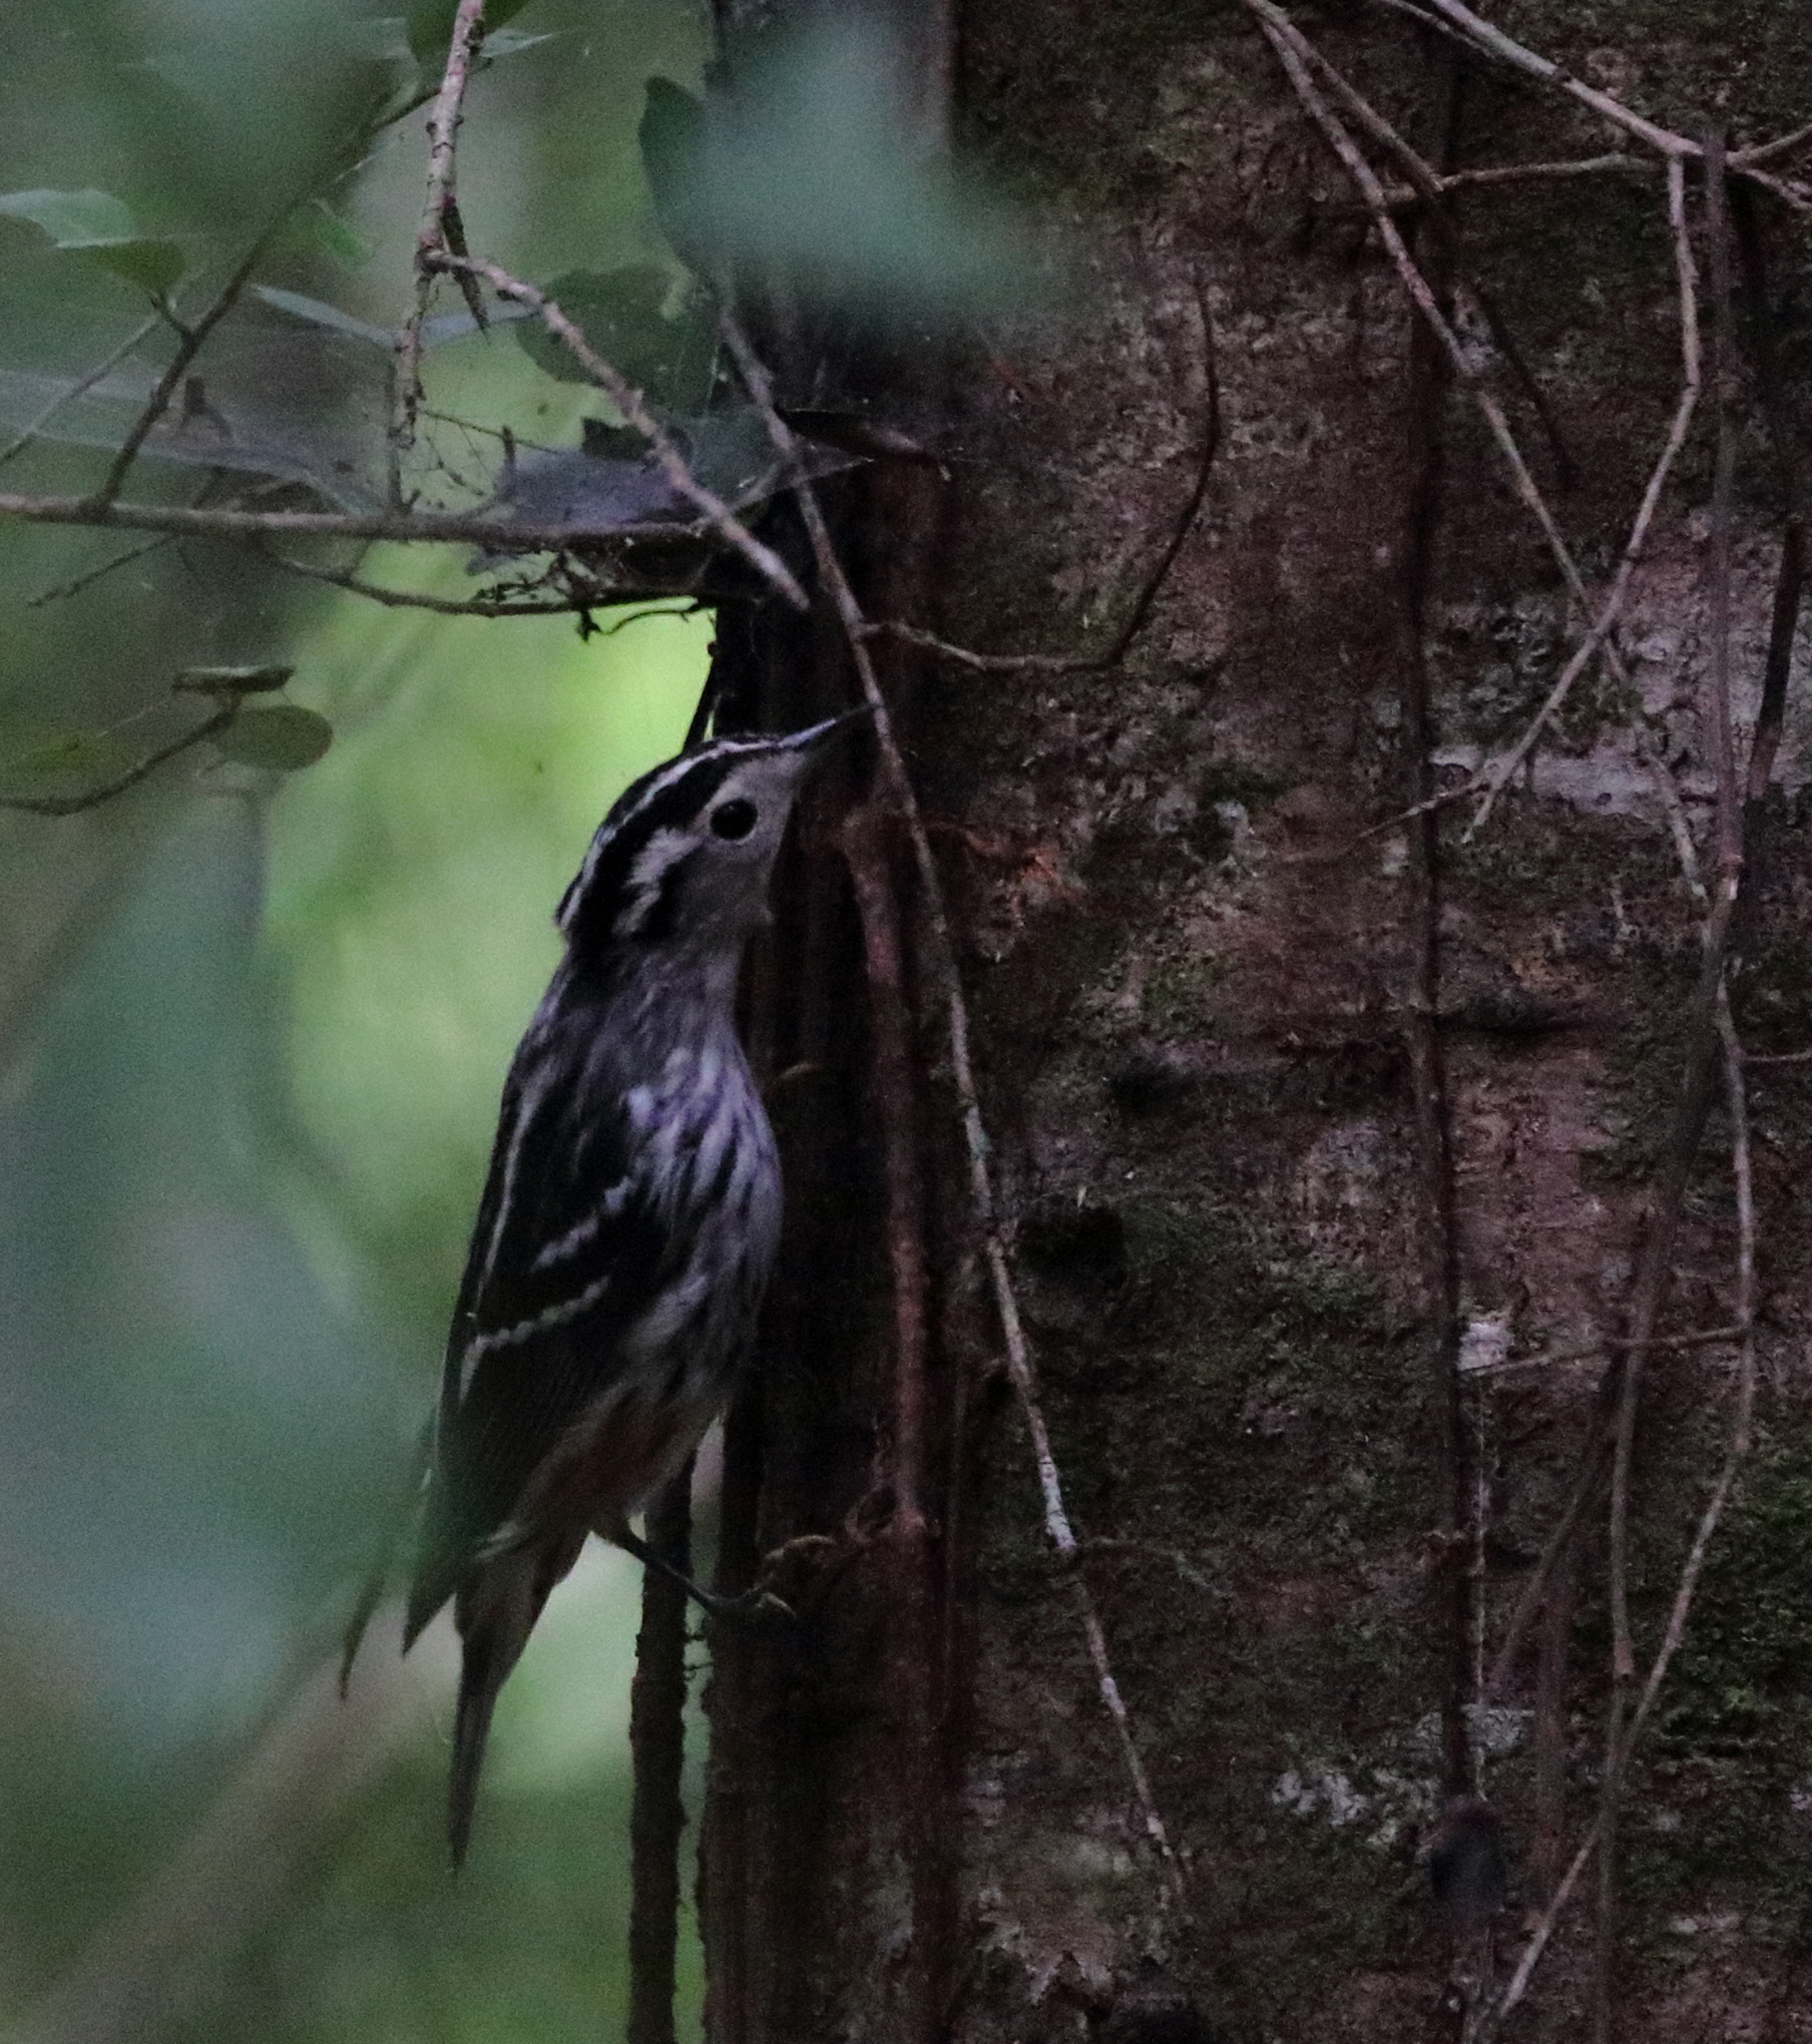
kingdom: Animalia
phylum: Chordata
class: Aves
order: Passeriformes
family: Parulidae
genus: Mniotilta
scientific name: Mniotilta varia
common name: Black-and-white warbler
